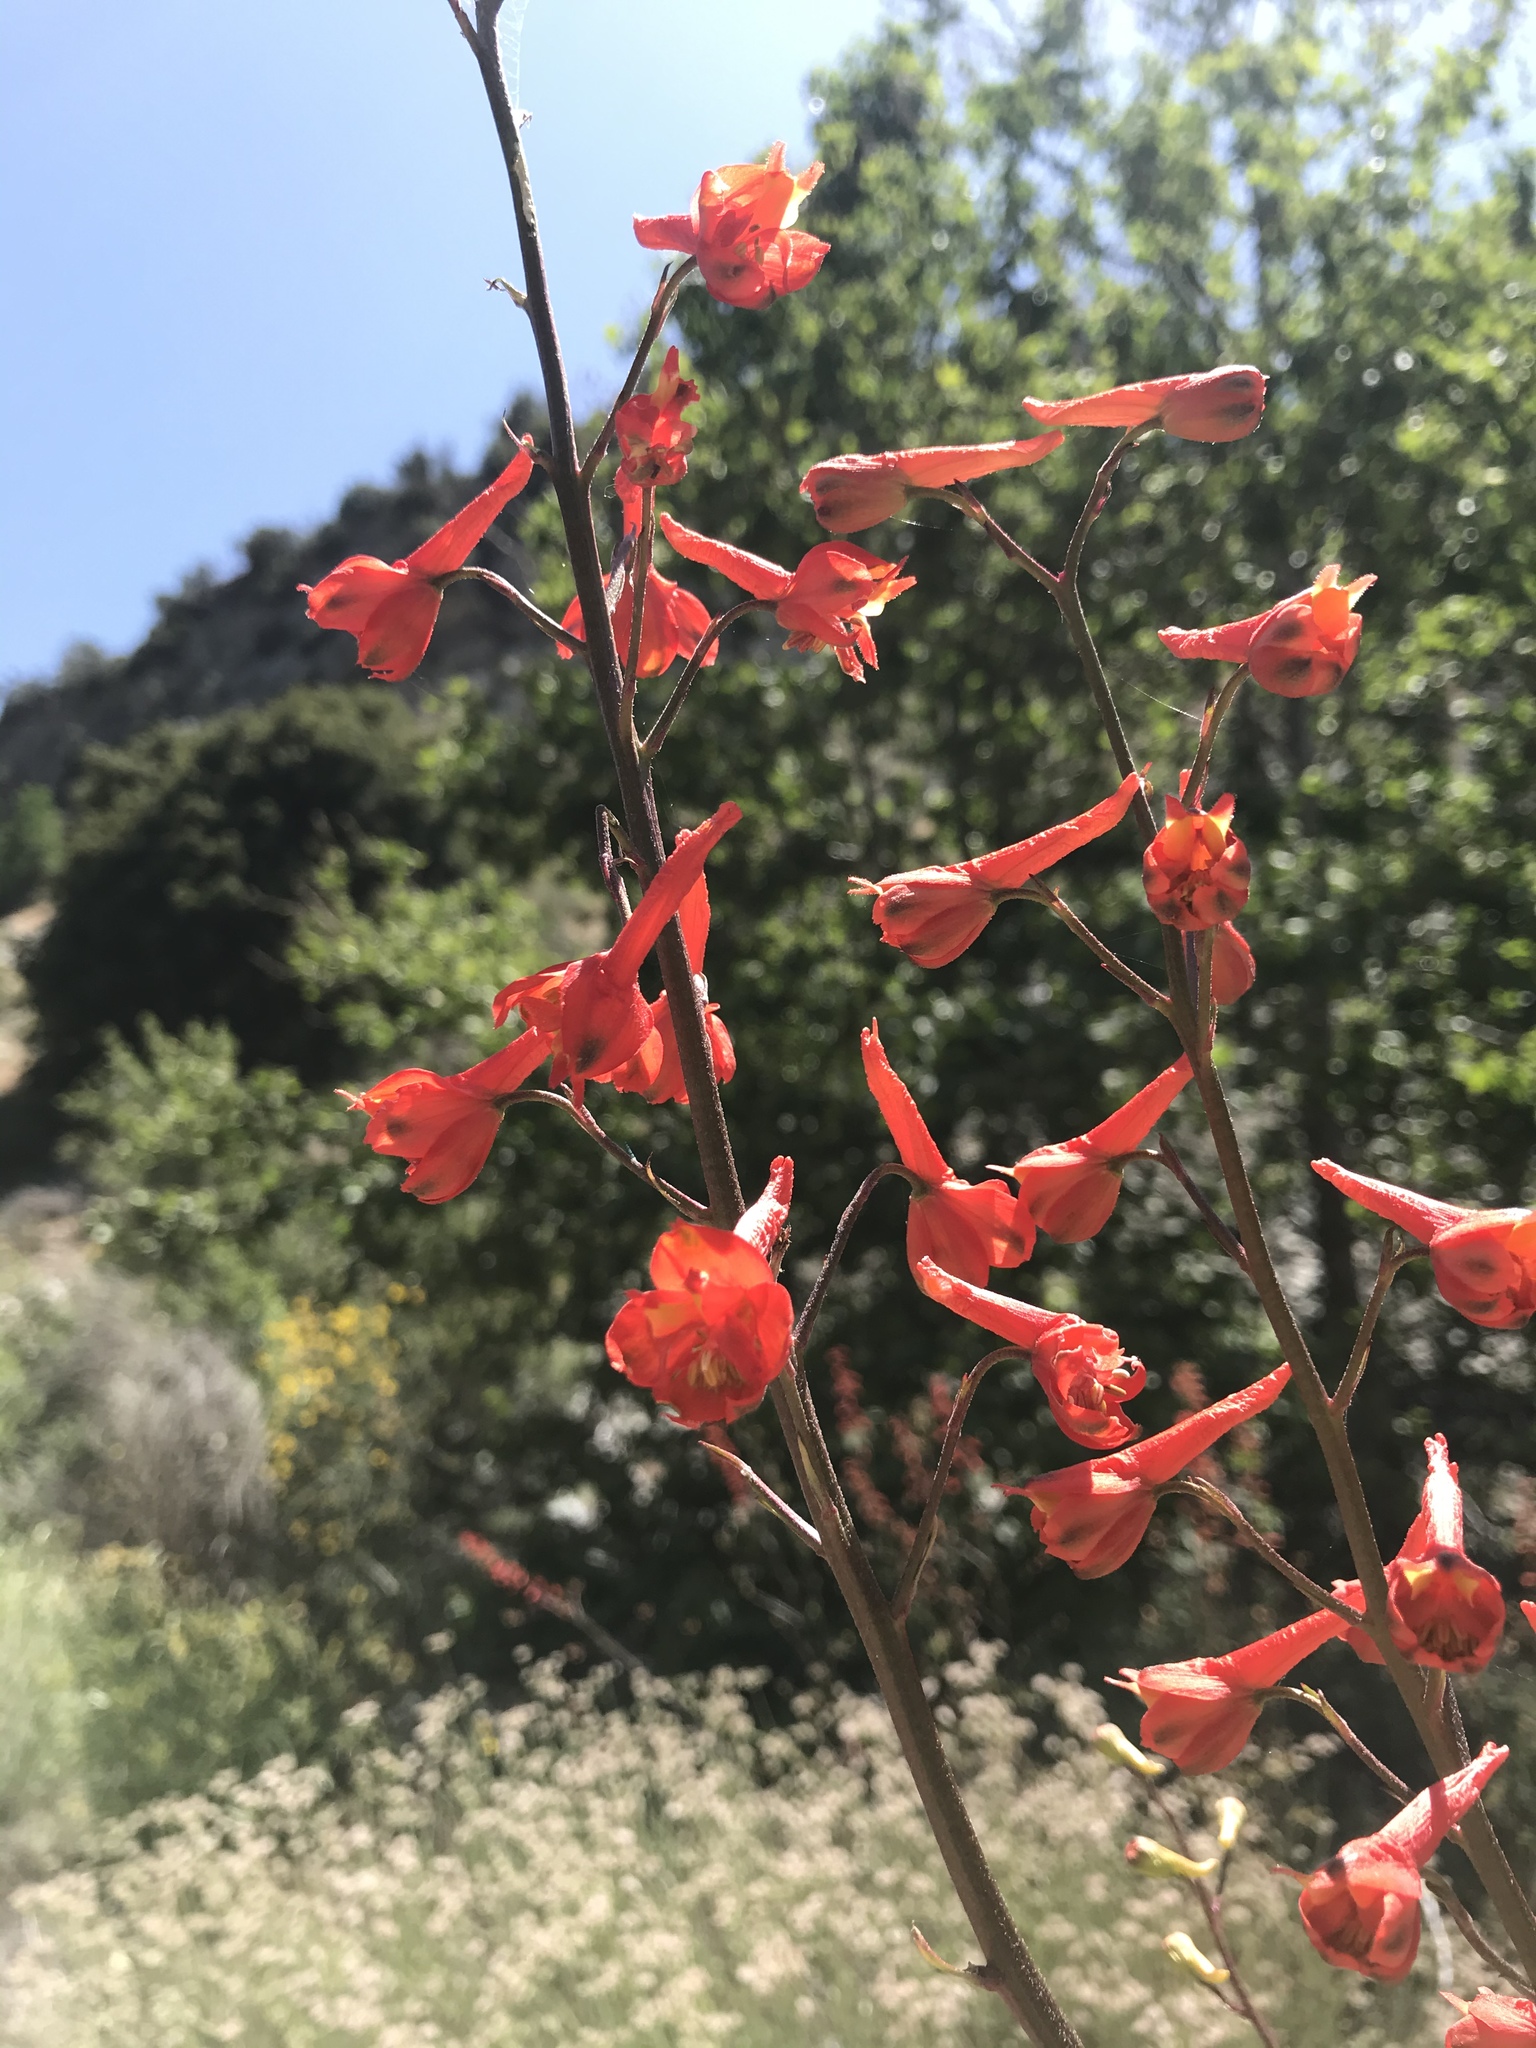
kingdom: Plantae
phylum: Tracheophyta
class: Magnoliopsida
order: Ranunculales
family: Ranunculaceae
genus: Delphinium
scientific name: Delphinium cardinale
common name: Scarlet larkspur
